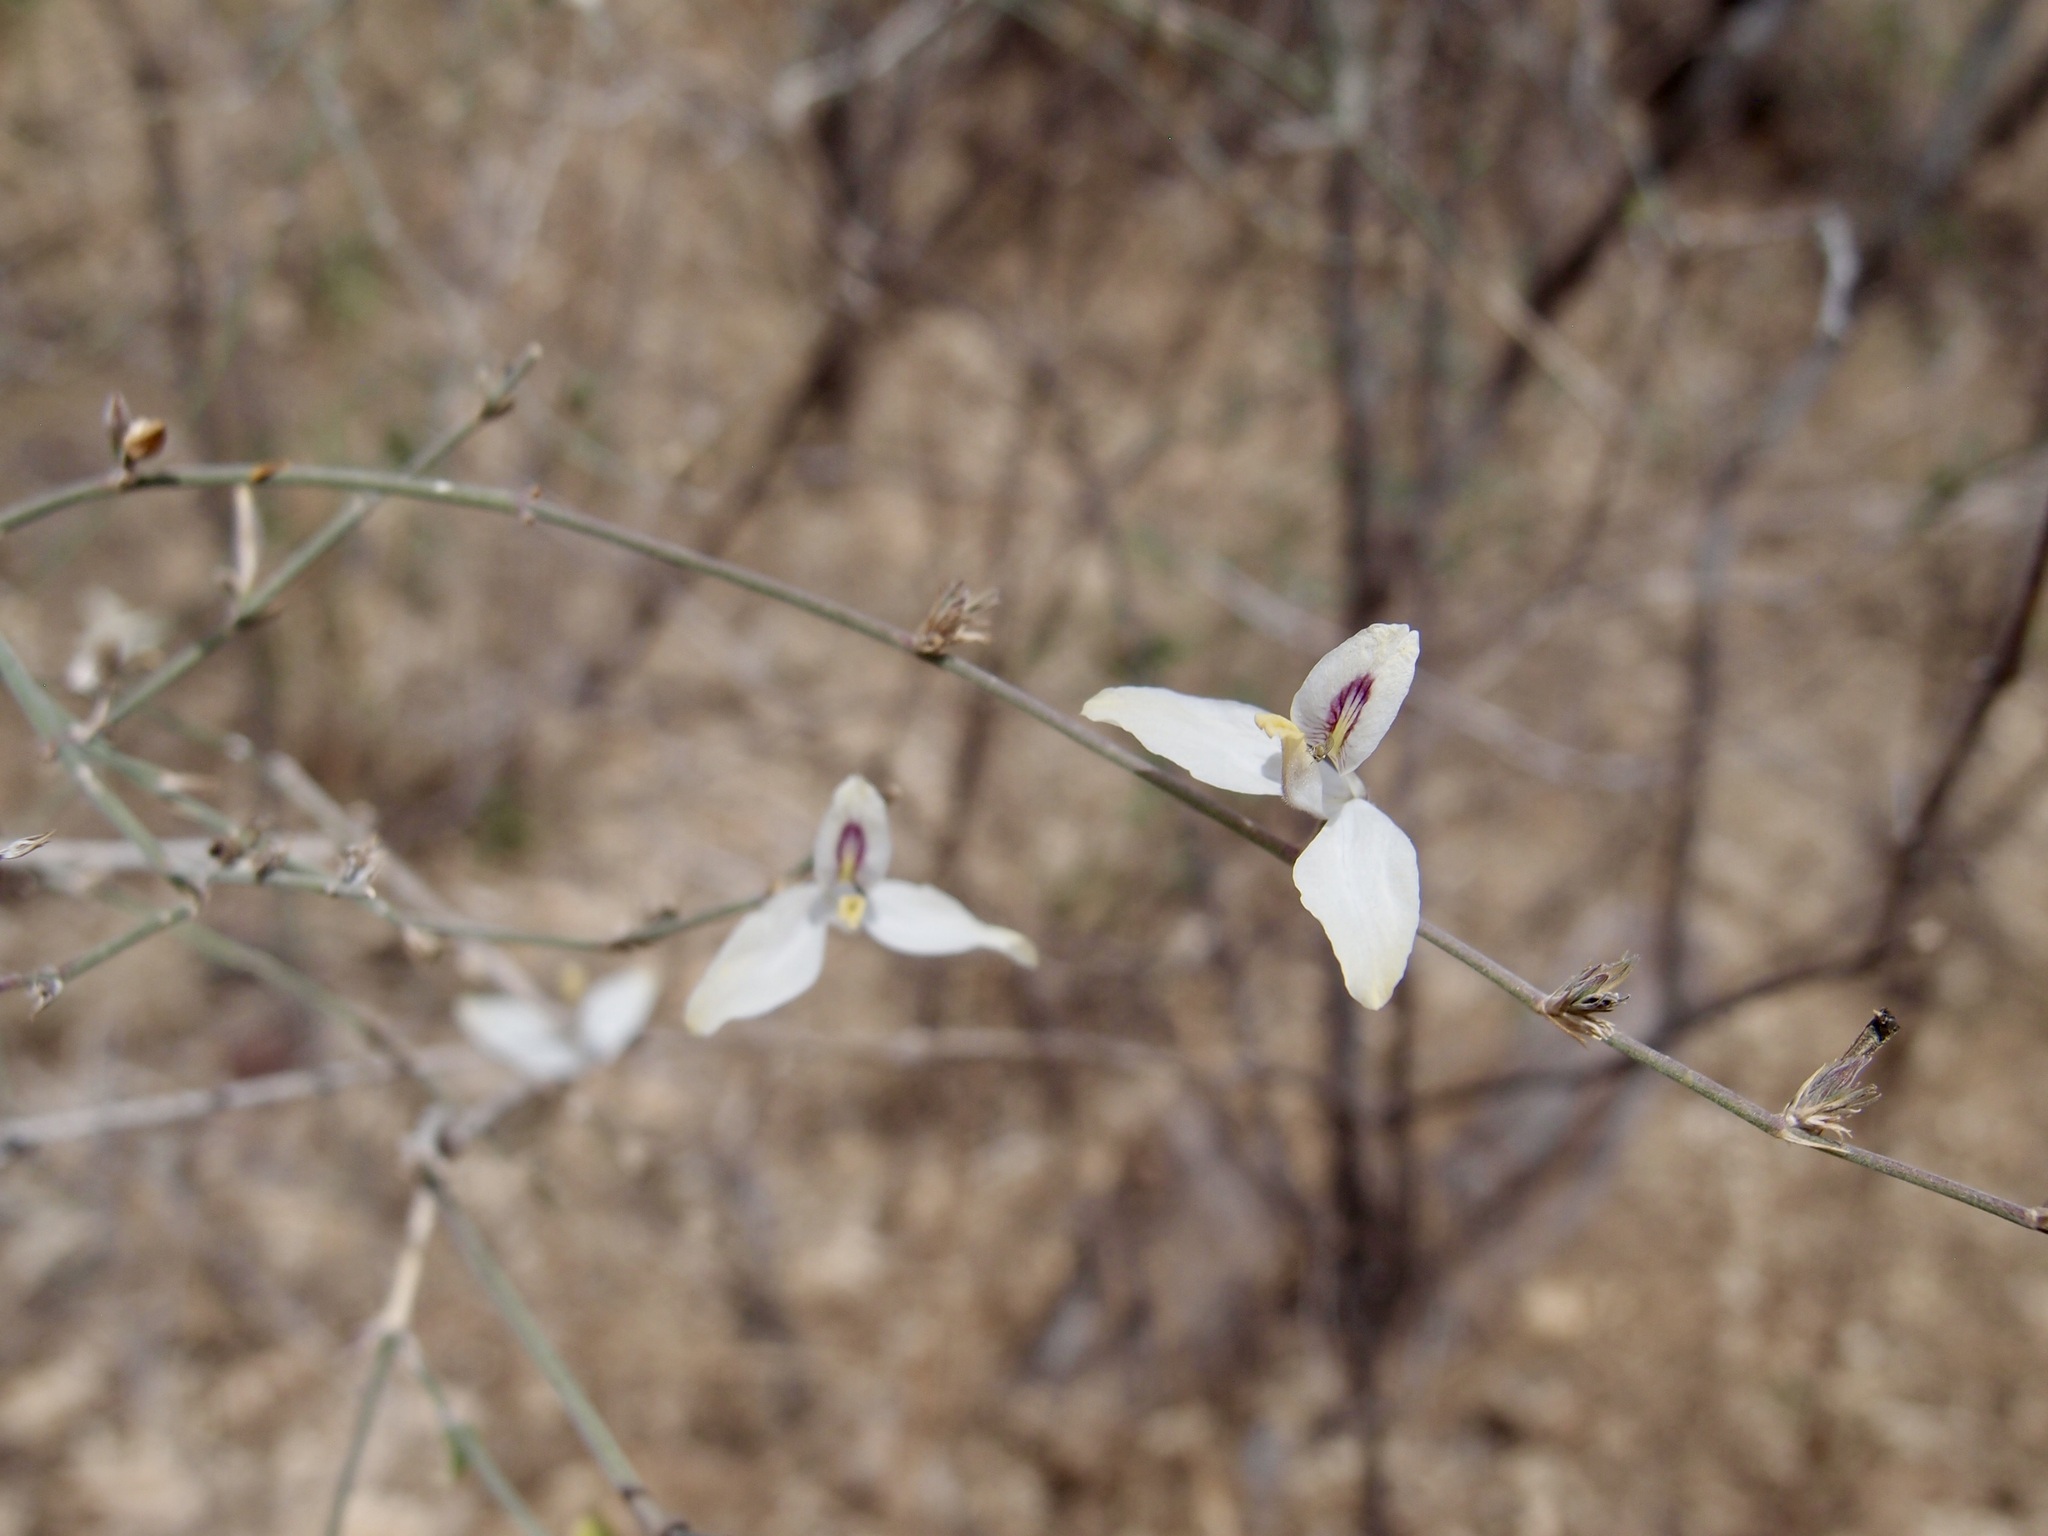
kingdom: Plantae
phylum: Tracheophyta
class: Magnoliopsida
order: Lamiales
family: Acanthaceae
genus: Carlowrightia
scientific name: Carlowrightia arizonica
